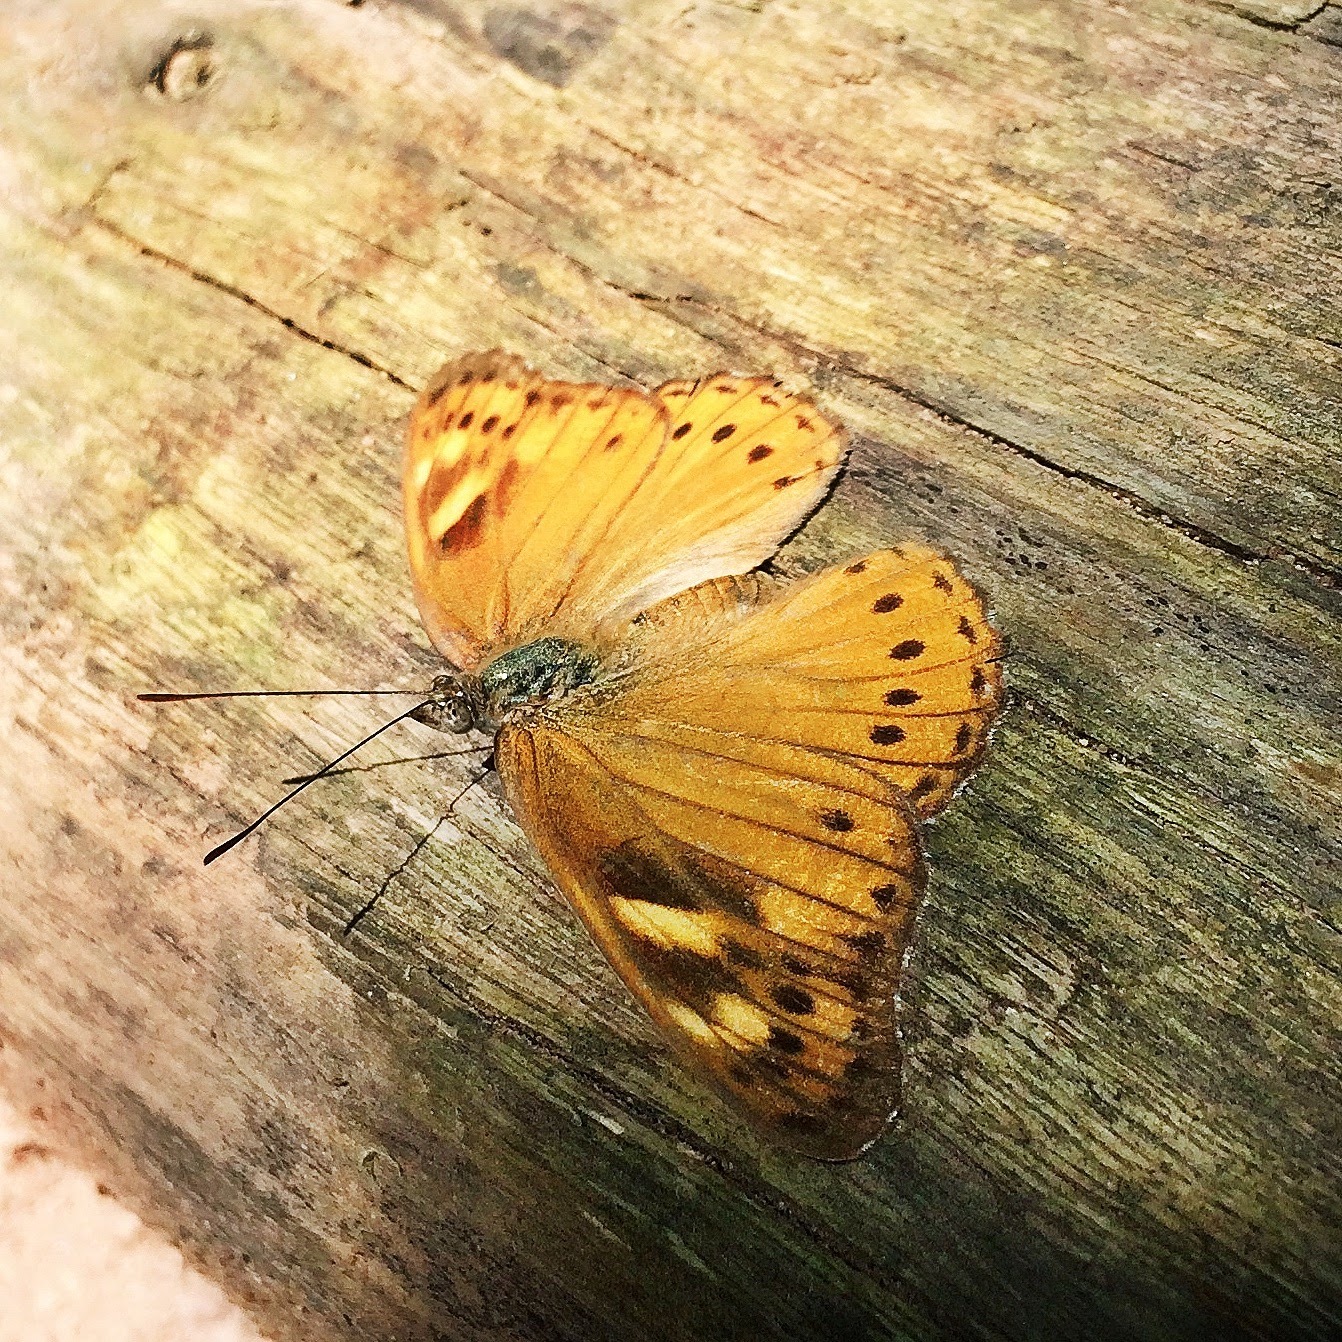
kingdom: Animalia
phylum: Arthropoda
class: Insecta
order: Lepidoptera
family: Nymphalidae
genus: Sallya
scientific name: Sallya natalensis
